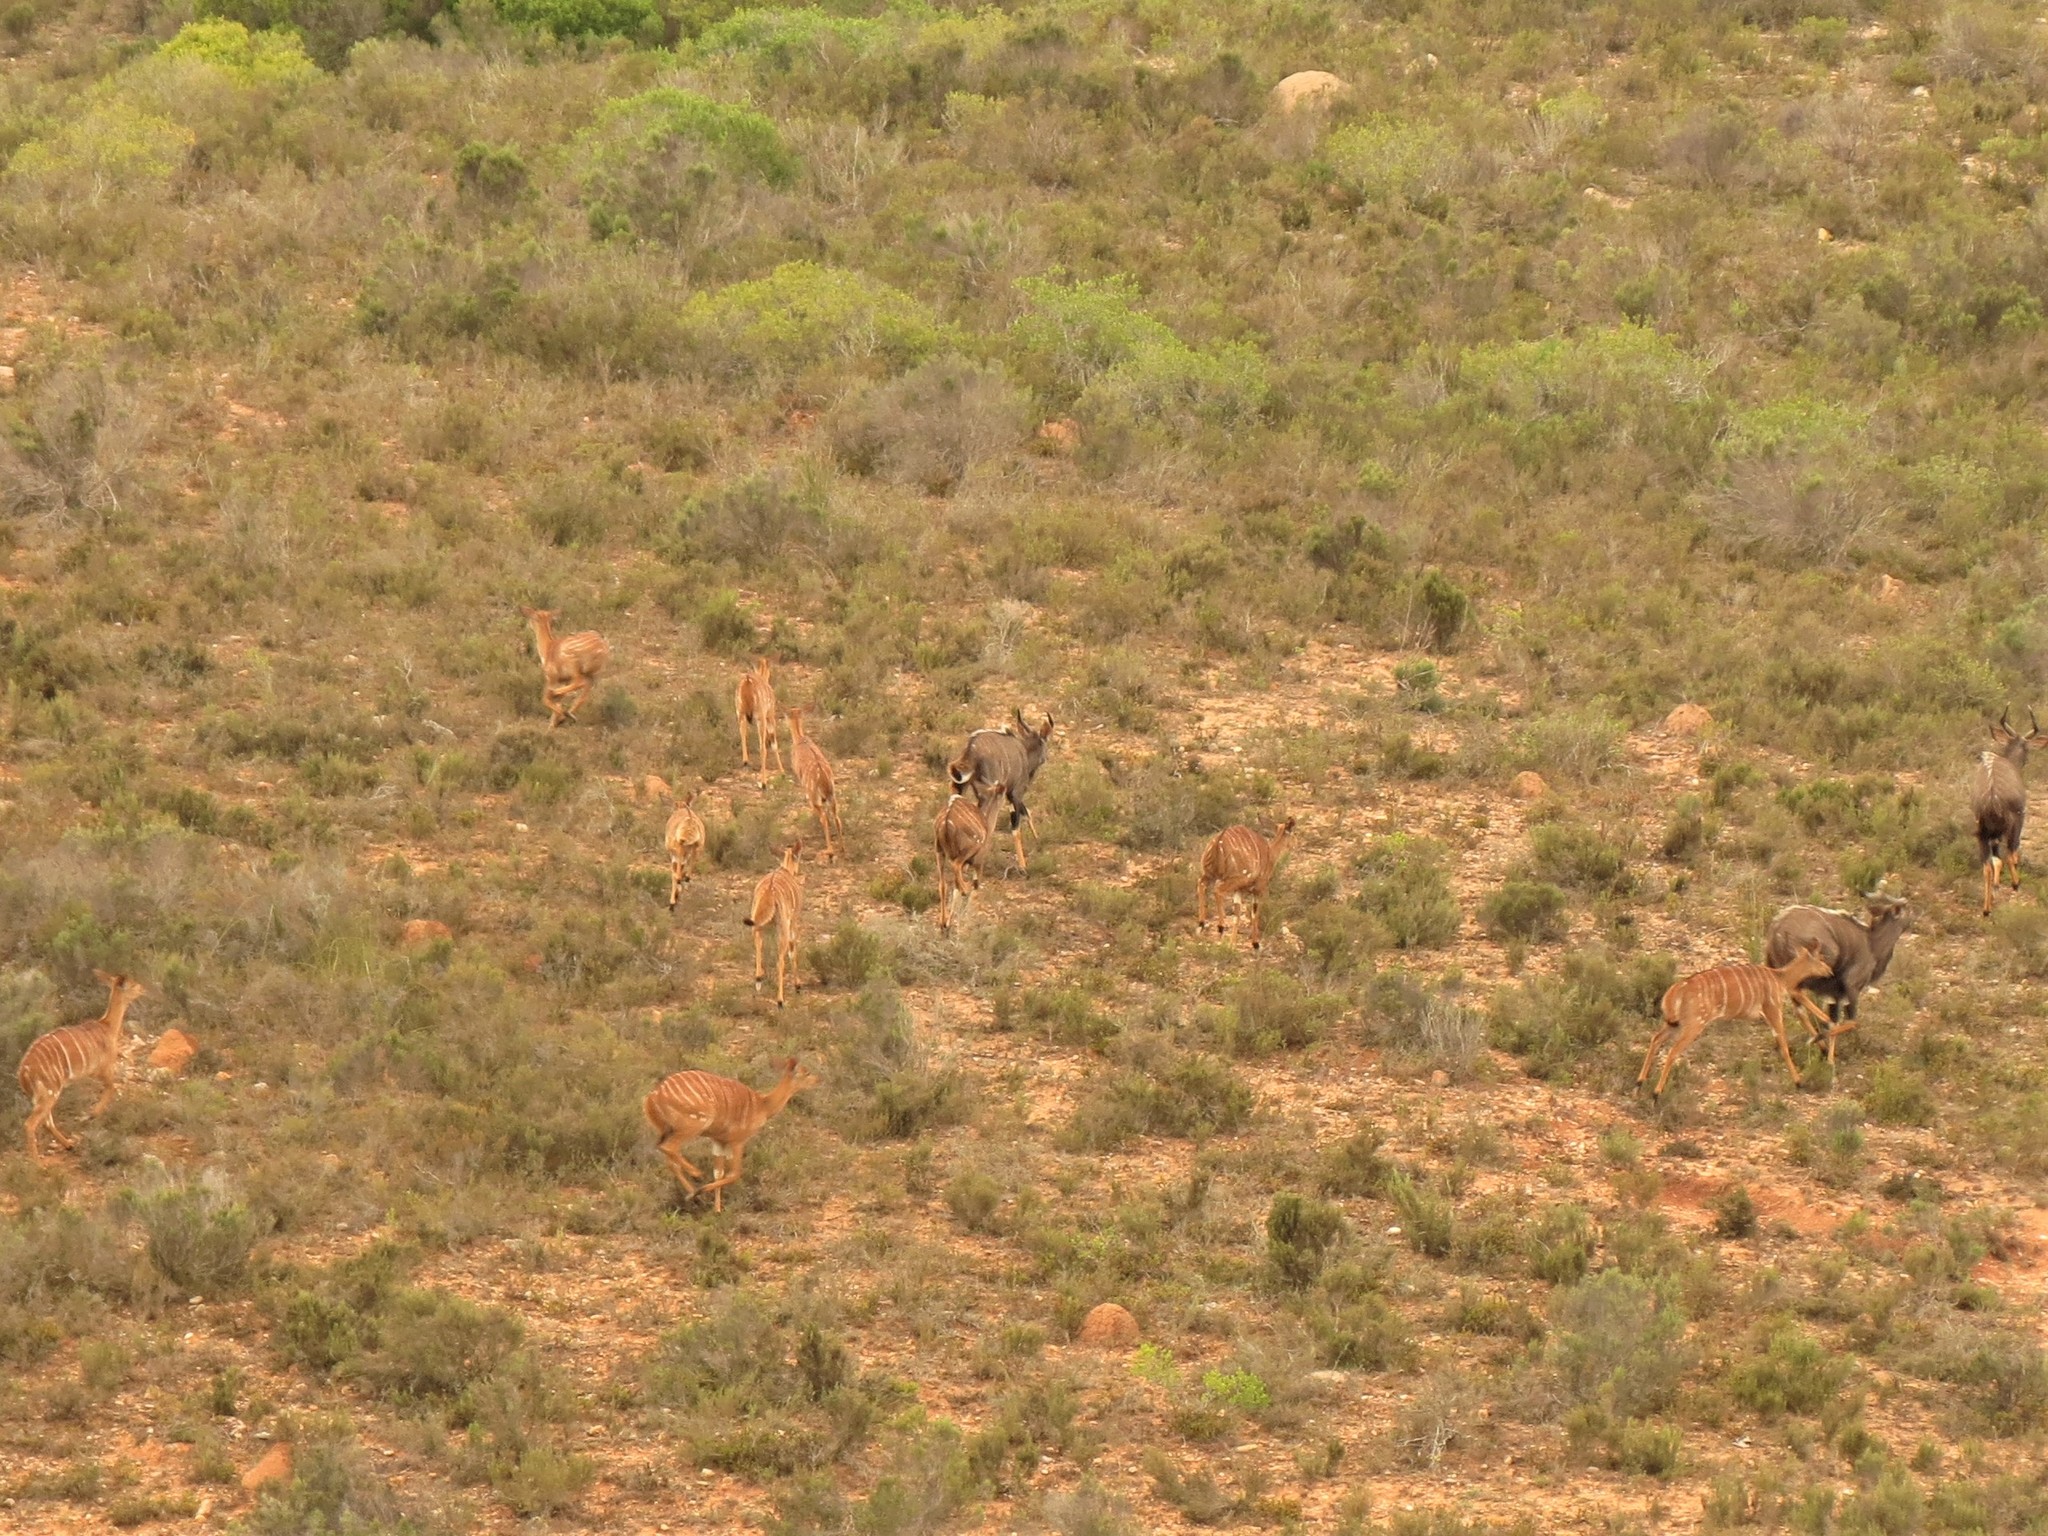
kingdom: Animalia
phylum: Chordata
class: Mammalia
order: Artiodactyla
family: Bovidae
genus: Tragelaphus
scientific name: Tragelaphus angasii
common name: Nyala
